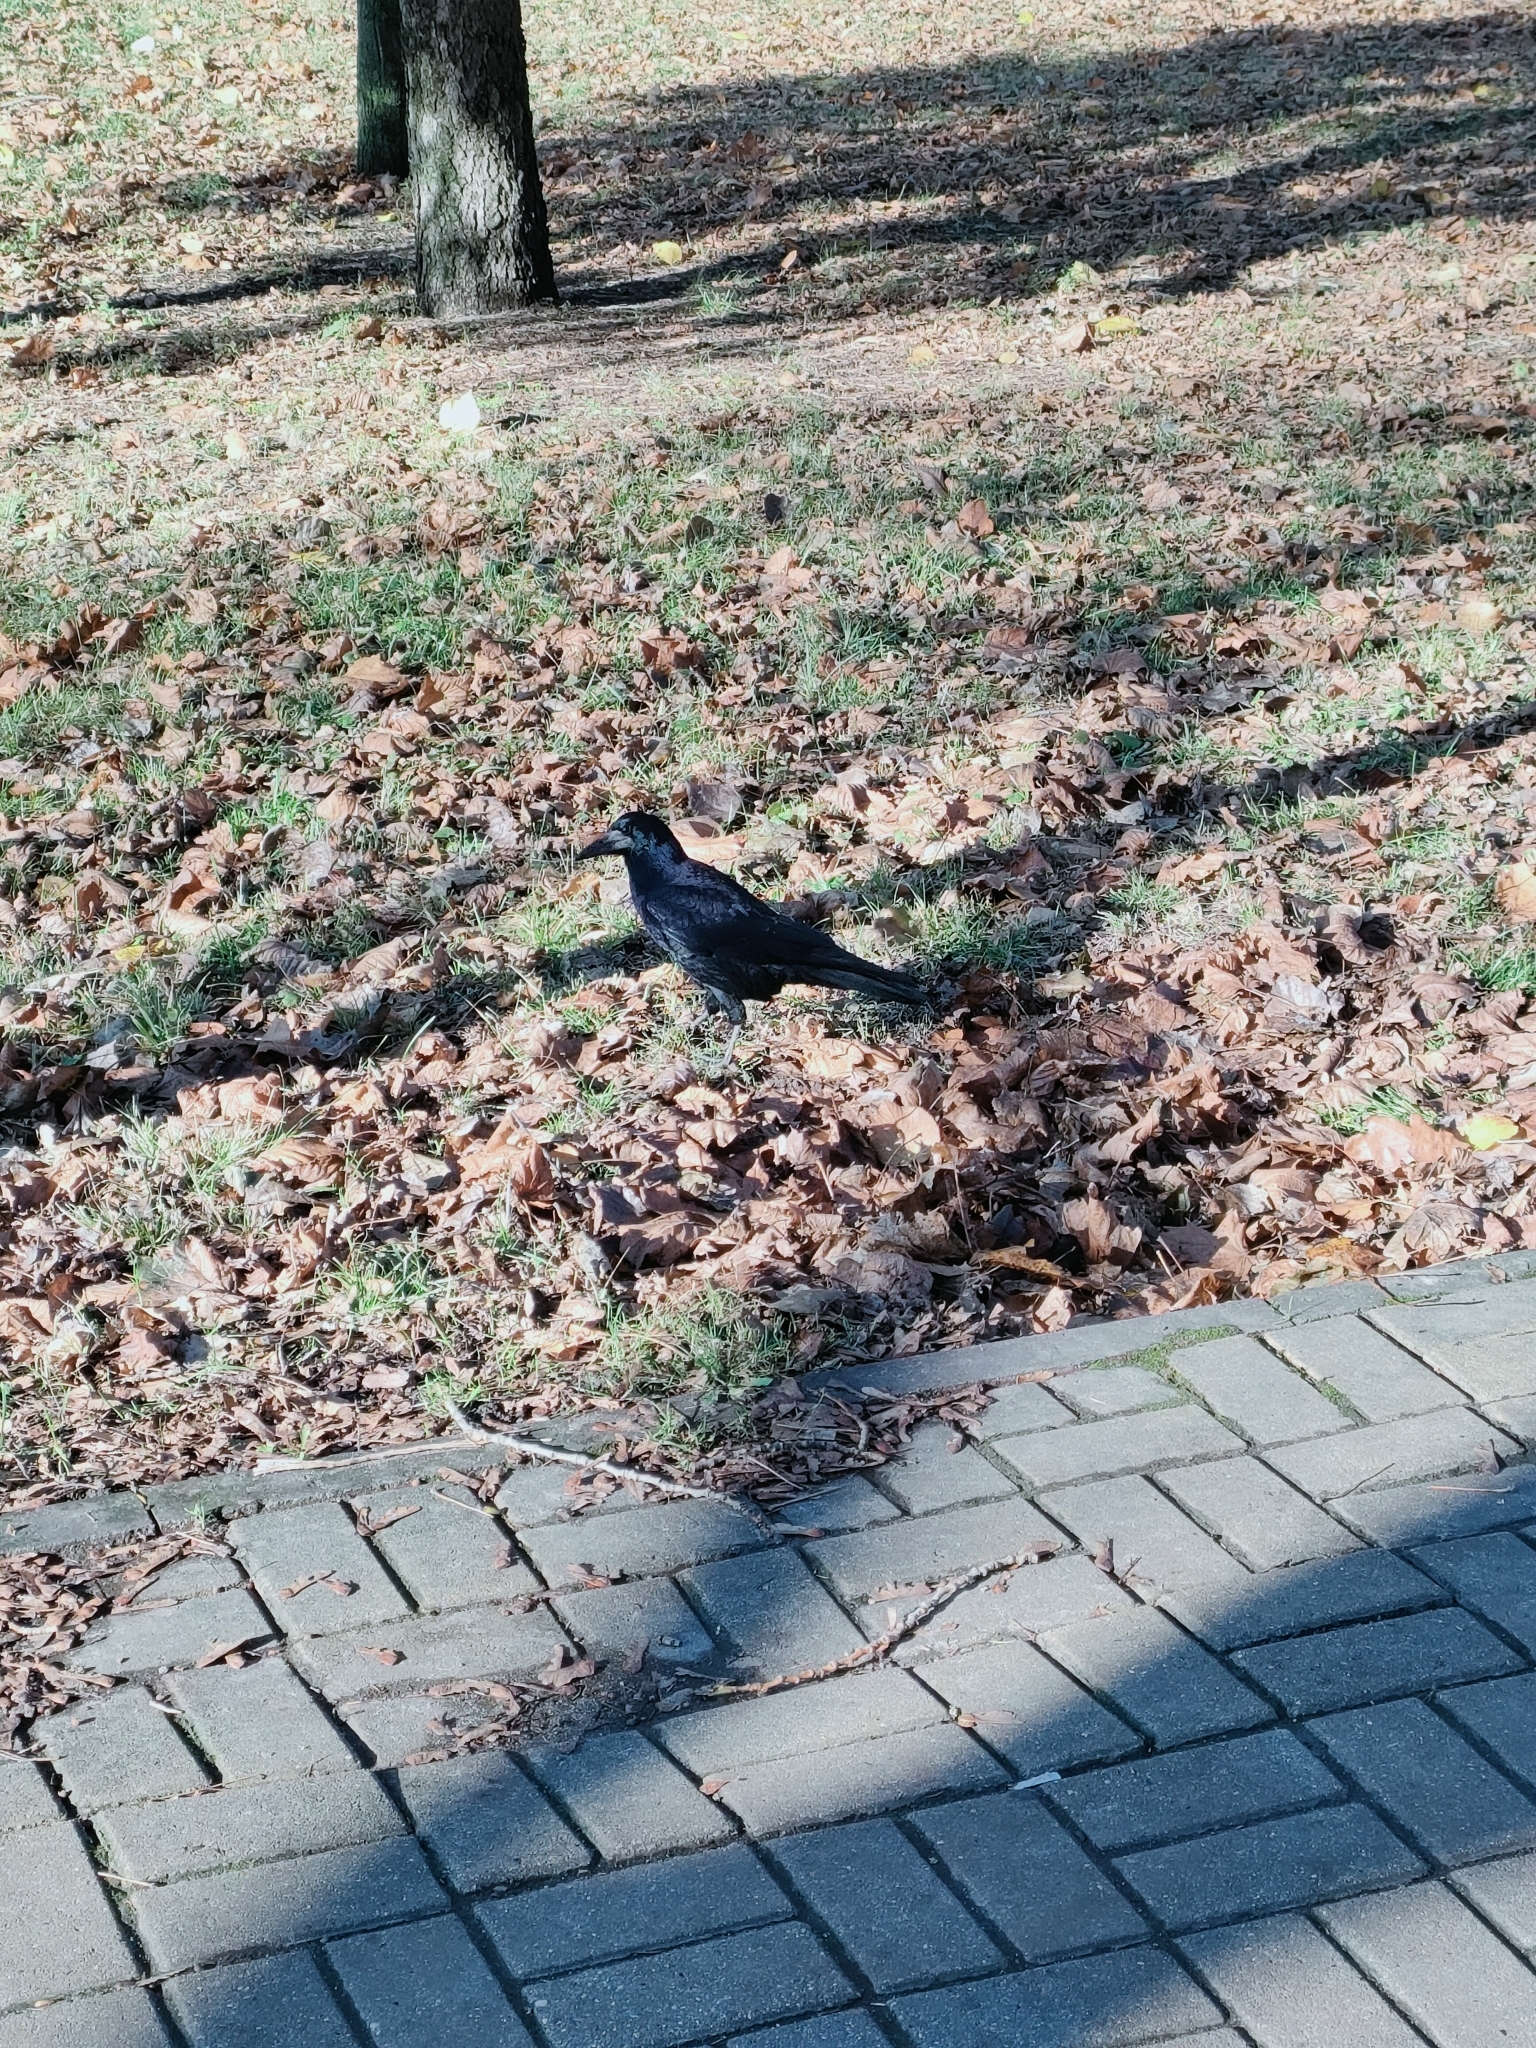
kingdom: Animalia
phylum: Chordata
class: Aves
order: Passeriformes
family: Corvidae
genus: Corvus
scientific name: Corvus frugilegus
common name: Rook
